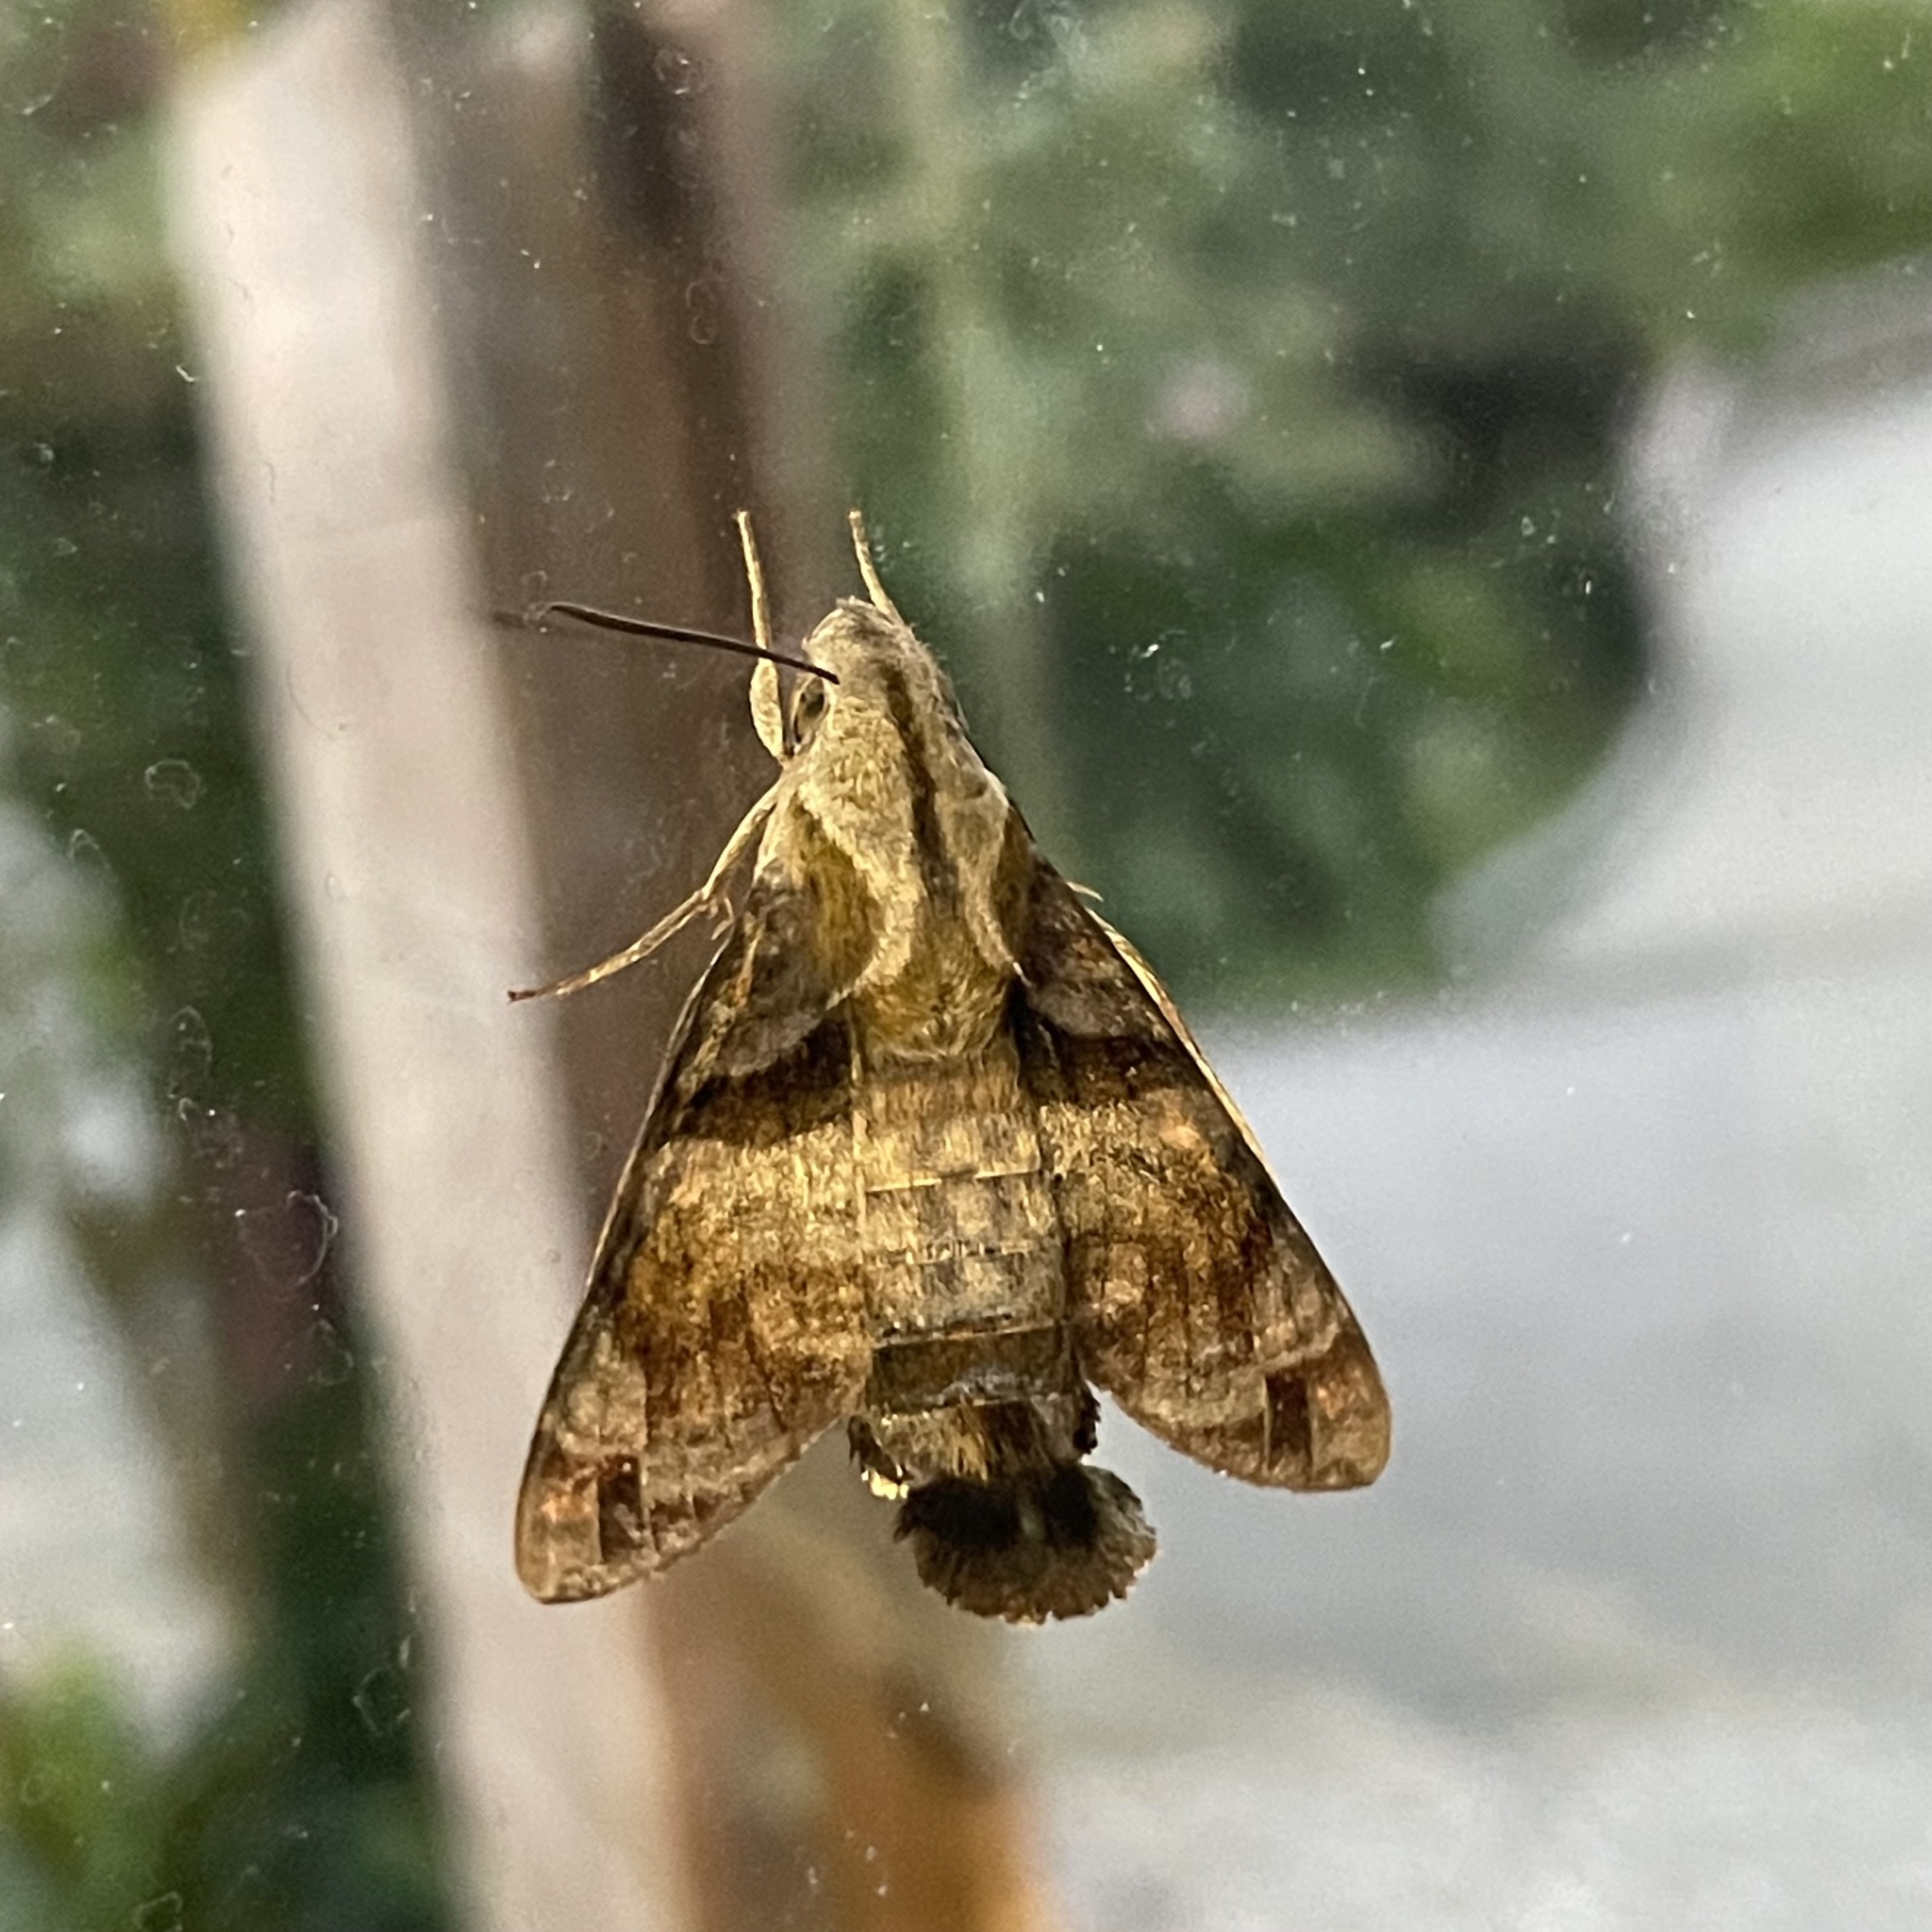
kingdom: Animalia
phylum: Arthropoda
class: Insecta
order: Lepidoptera
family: Sphingidae
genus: Macroglossum
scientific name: Macroglossum pyrrhosticta
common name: Hummingbird hawk moth
